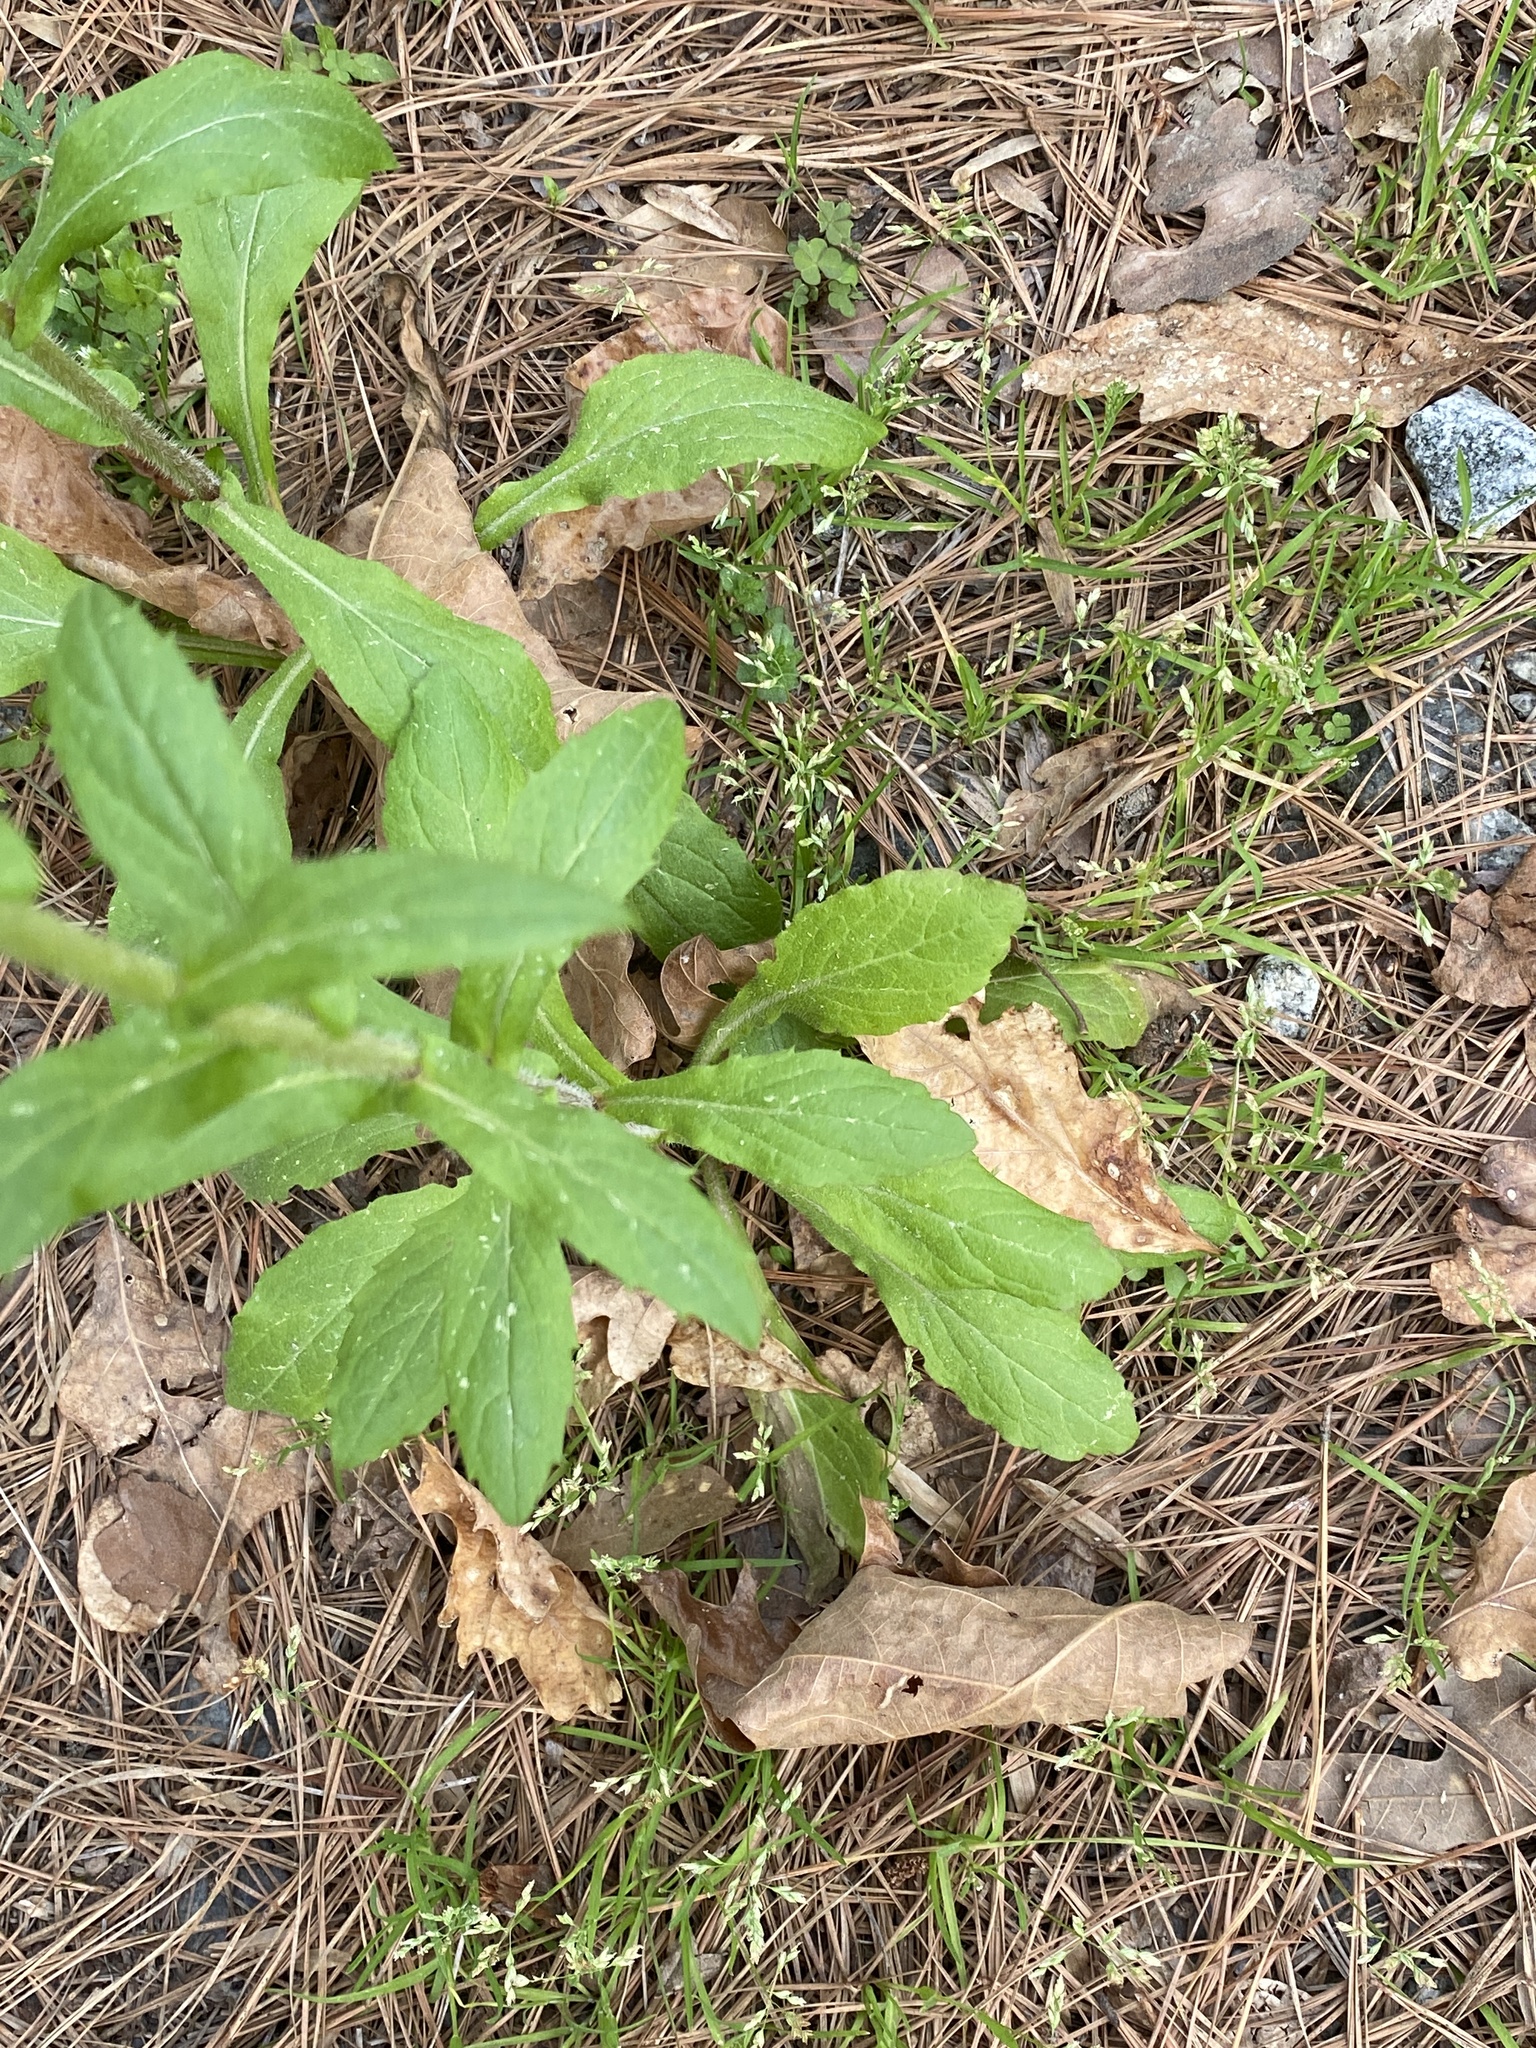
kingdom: Plantae
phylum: Tracheophyta
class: Magnoliopsida
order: Asterales
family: Asteraceae
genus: Erigeron
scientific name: Erigeron philadelphicus
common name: Robin's-plantain
